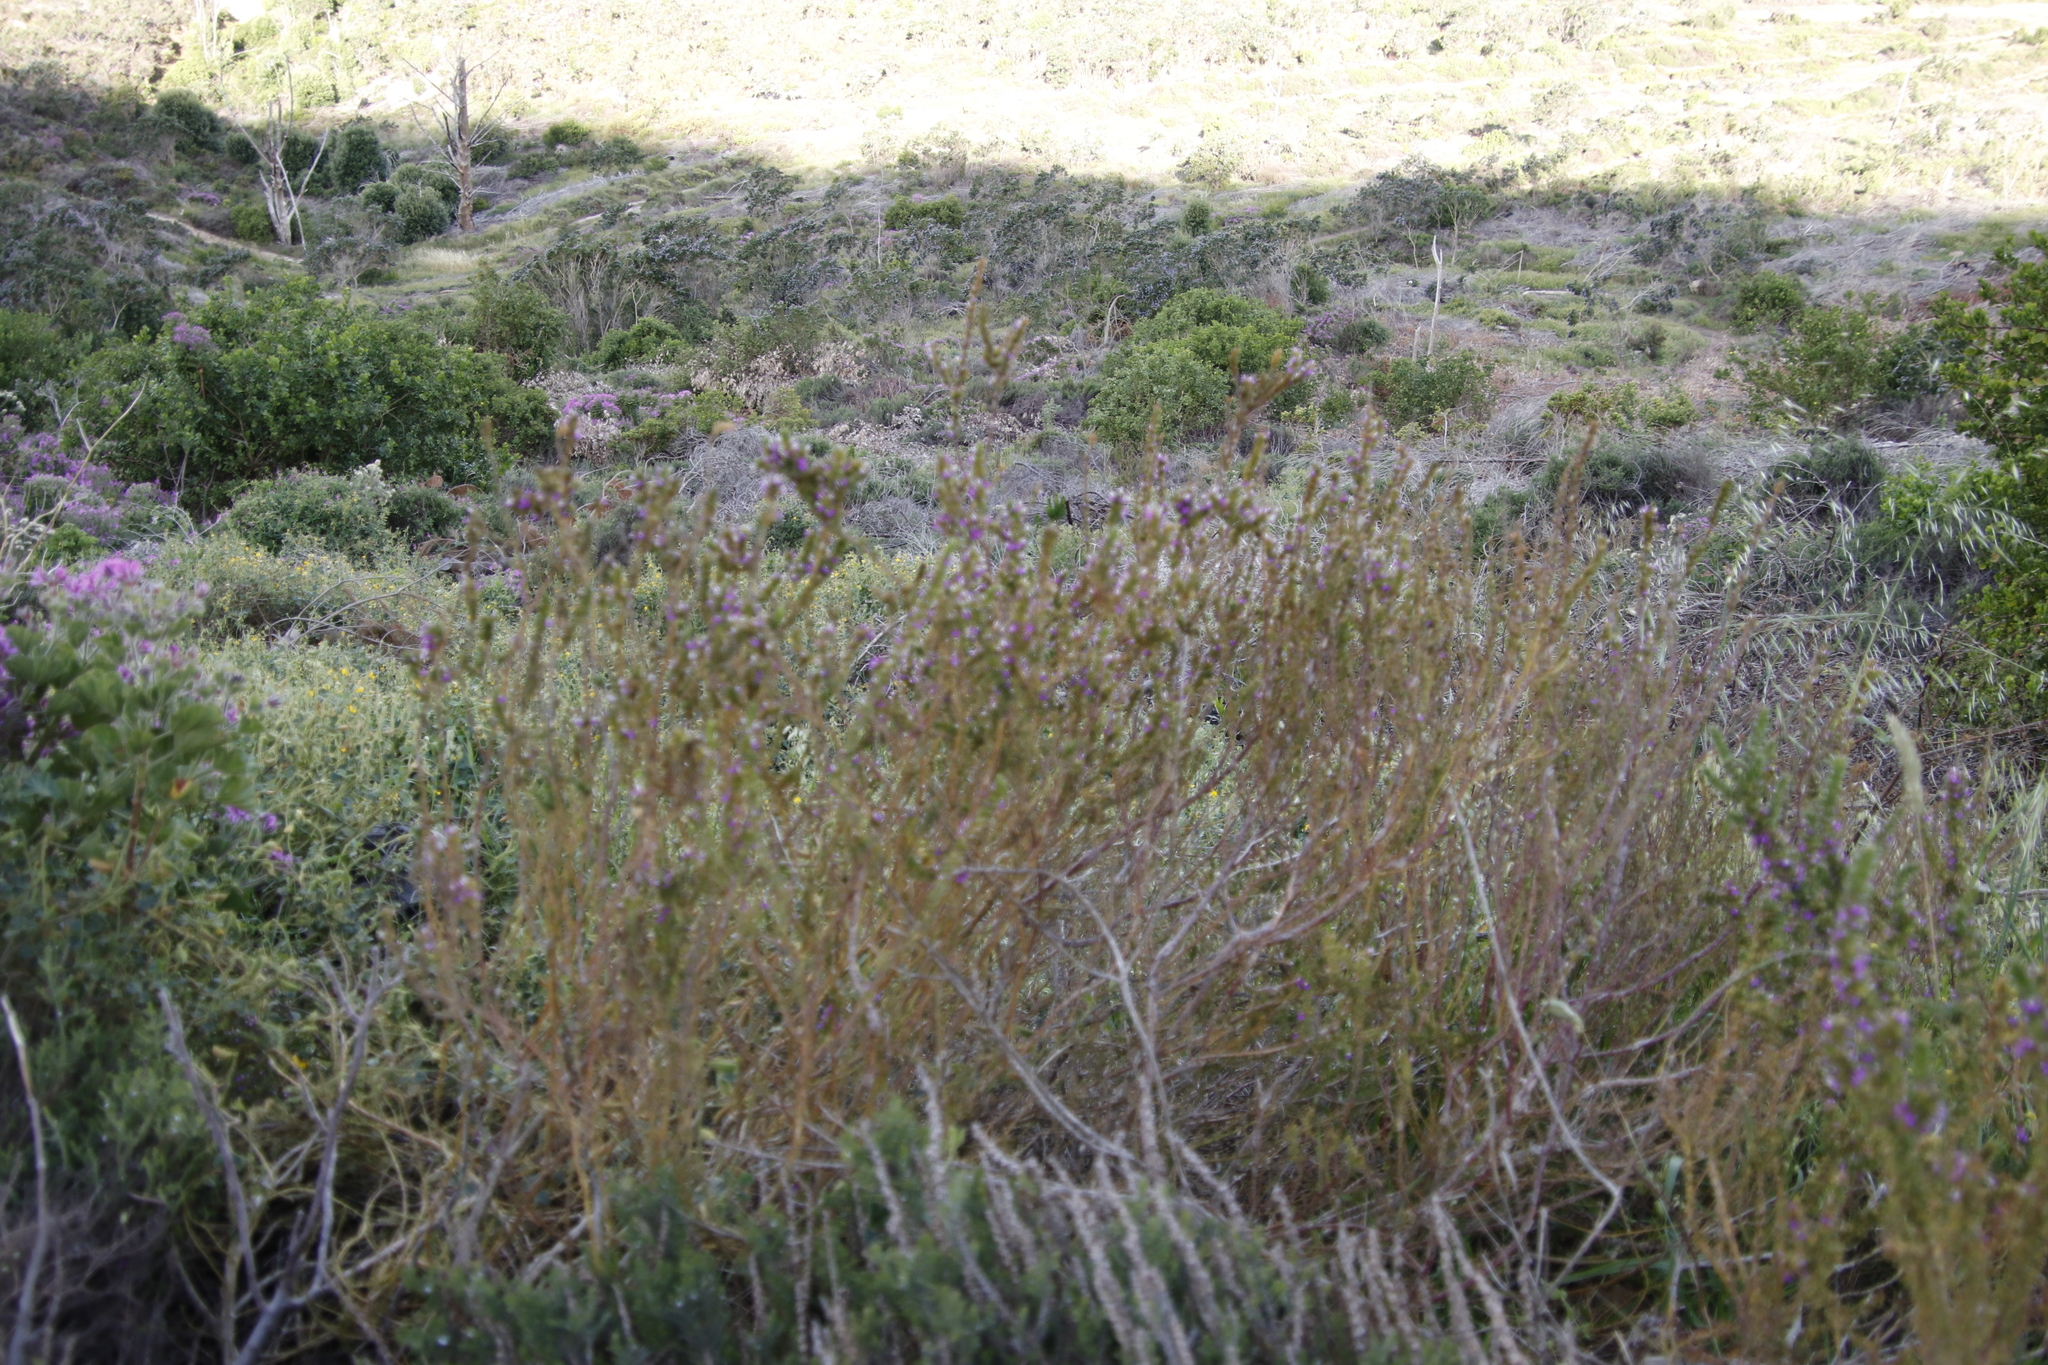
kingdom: Plantae
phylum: Tracheophyta
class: Magnoliopsida
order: Fabales
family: Polygalaceae
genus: Muraltia
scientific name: Muraltia heisteria
